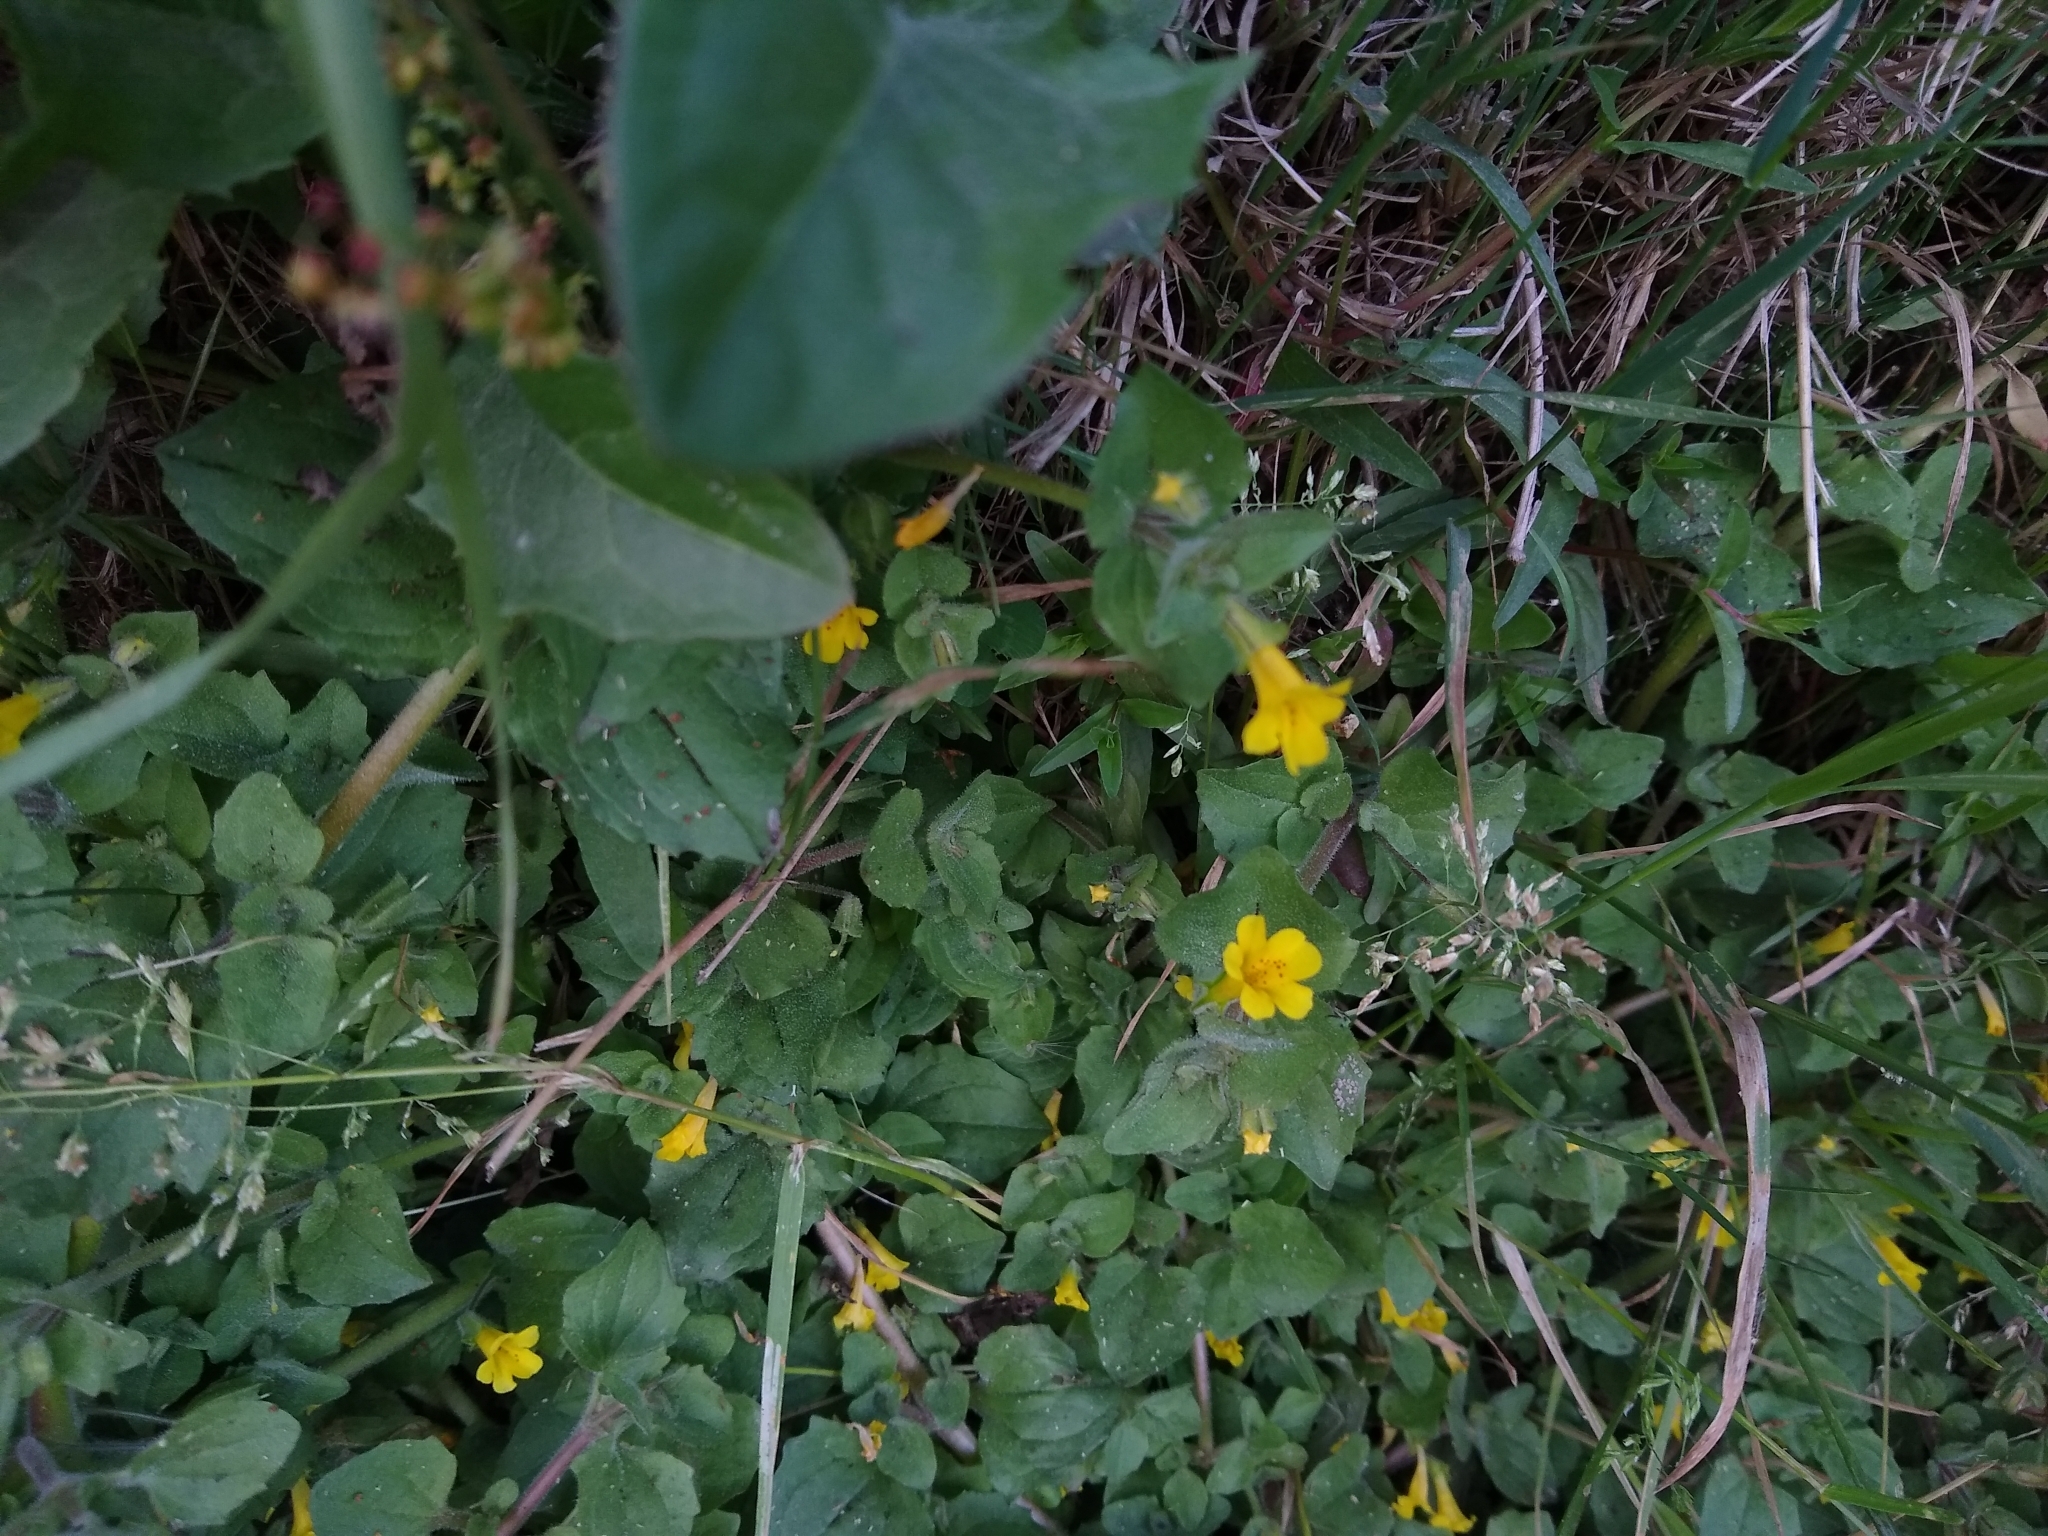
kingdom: Plantae
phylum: Tracheophyta
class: Magnoliopsida
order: Lamiales
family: Phrymaceae
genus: Erythranthe
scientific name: Erythranthe andicola
